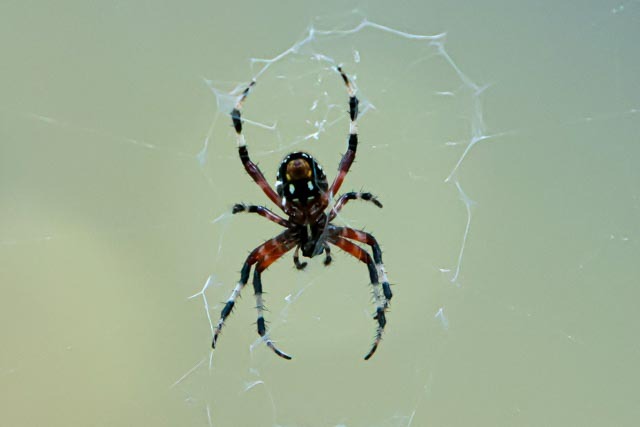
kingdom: Animalia
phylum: Arthropoda
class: Arachnida
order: Araneae
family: Araneidae
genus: Neoscona
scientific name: Neoscona domiciliorum
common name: Red-femured spotted orbweaver
